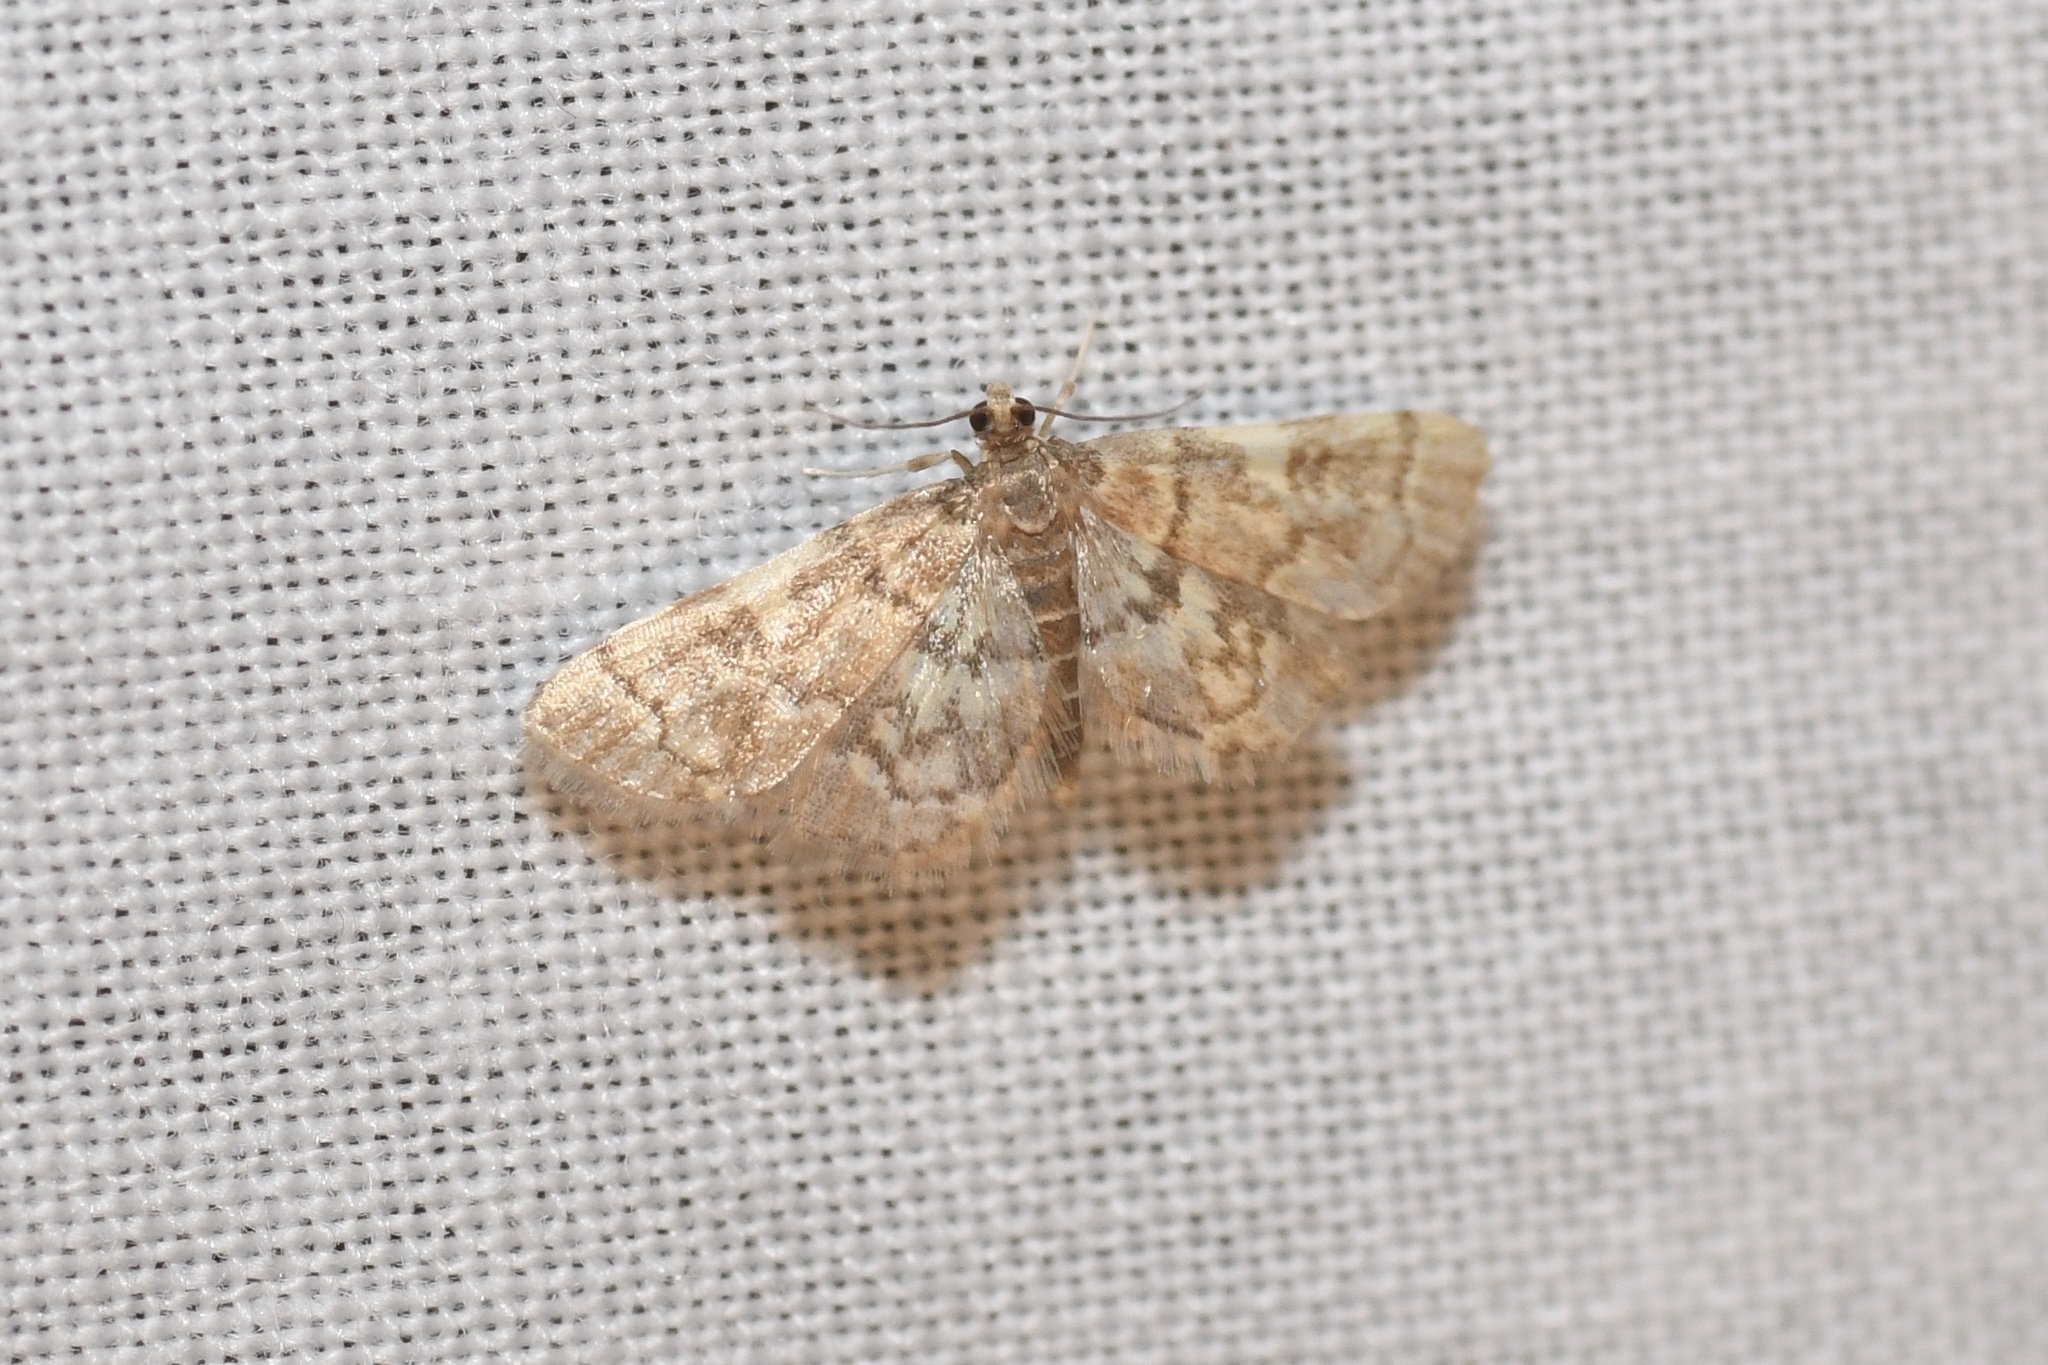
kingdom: Animalia
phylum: Arthropoda
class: Insecta
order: Lepidoptera
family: Crambidae
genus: Anageshna
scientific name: Anageshna primordialis
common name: Yellow-spotted webworm moth
